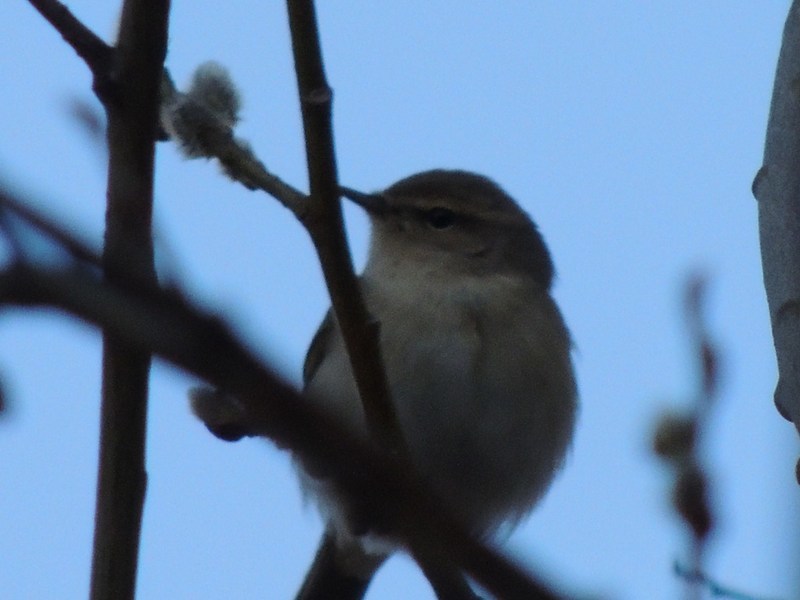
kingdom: Animalia
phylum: Chordata
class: Aves
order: Passeriformes
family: Phylloscopidae
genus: Phylloscopus
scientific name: Phylloscopus collybita
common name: Common chiffchaff
